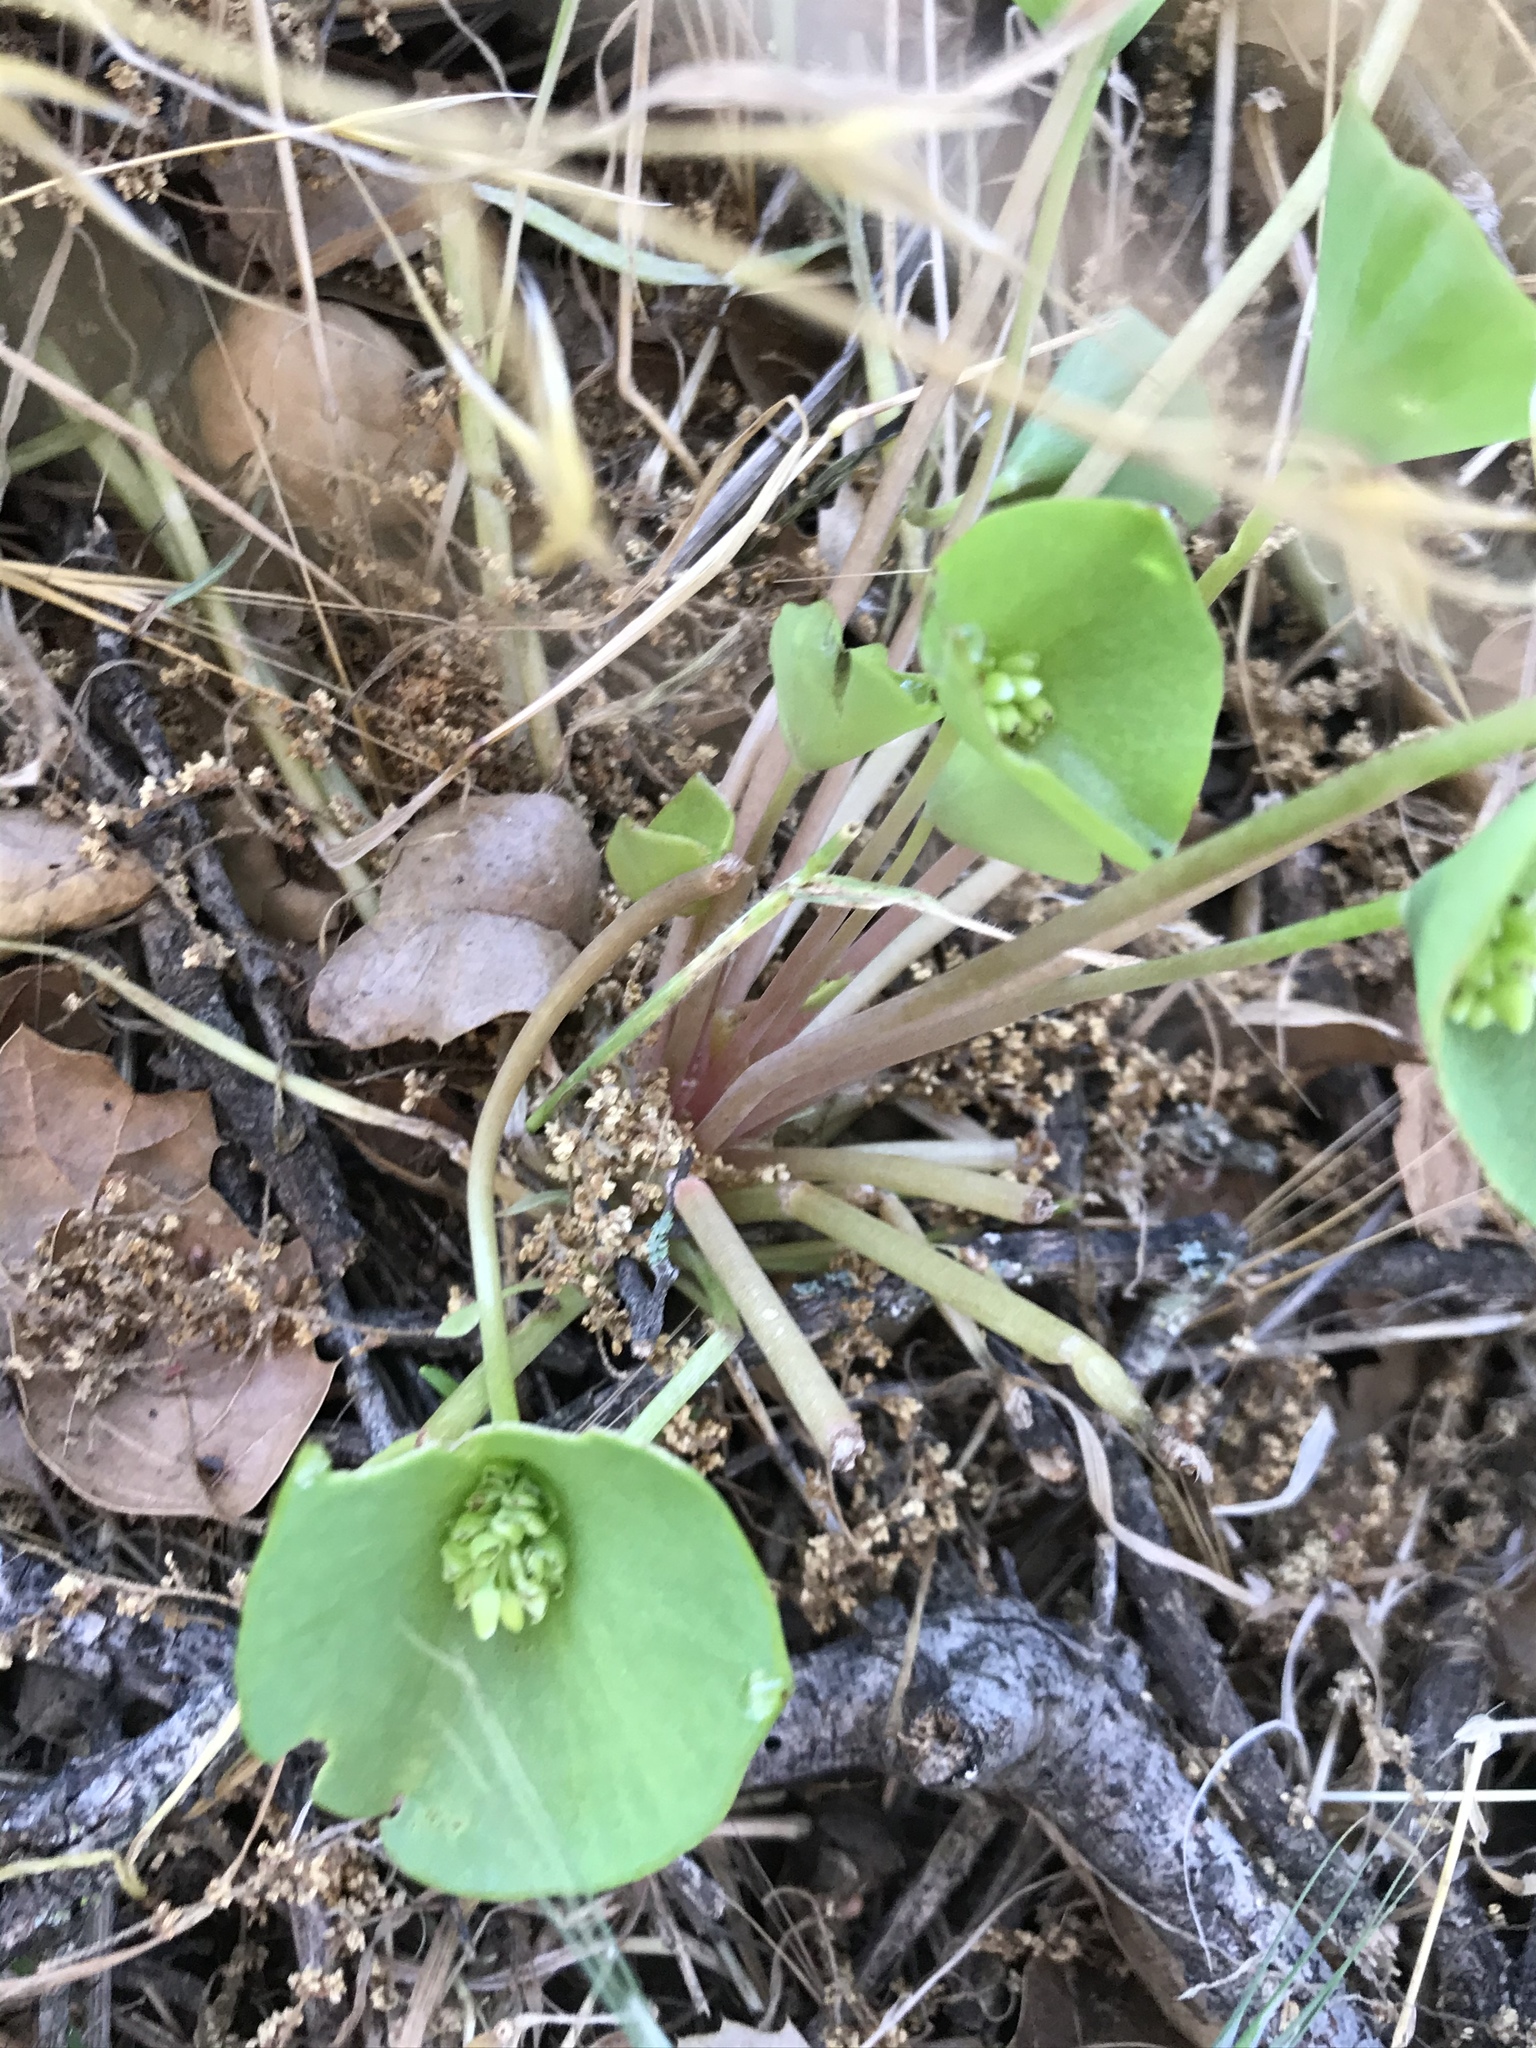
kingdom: Plantae
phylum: Tracheophyta
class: Magnoliopsida
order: Caryophyllales
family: Montiaceae
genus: Claytonia
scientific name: Claytonia perfoliata
